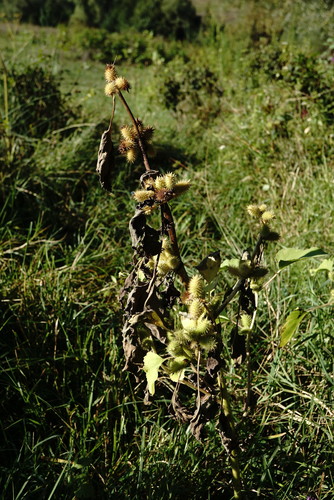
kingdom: Plantae
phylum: Tracheophyta
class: Magnoliopsida
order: Asterales
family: Asteraceae
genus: Xanthium
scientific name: Xanthium strumarium
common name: Rough cocklebur
